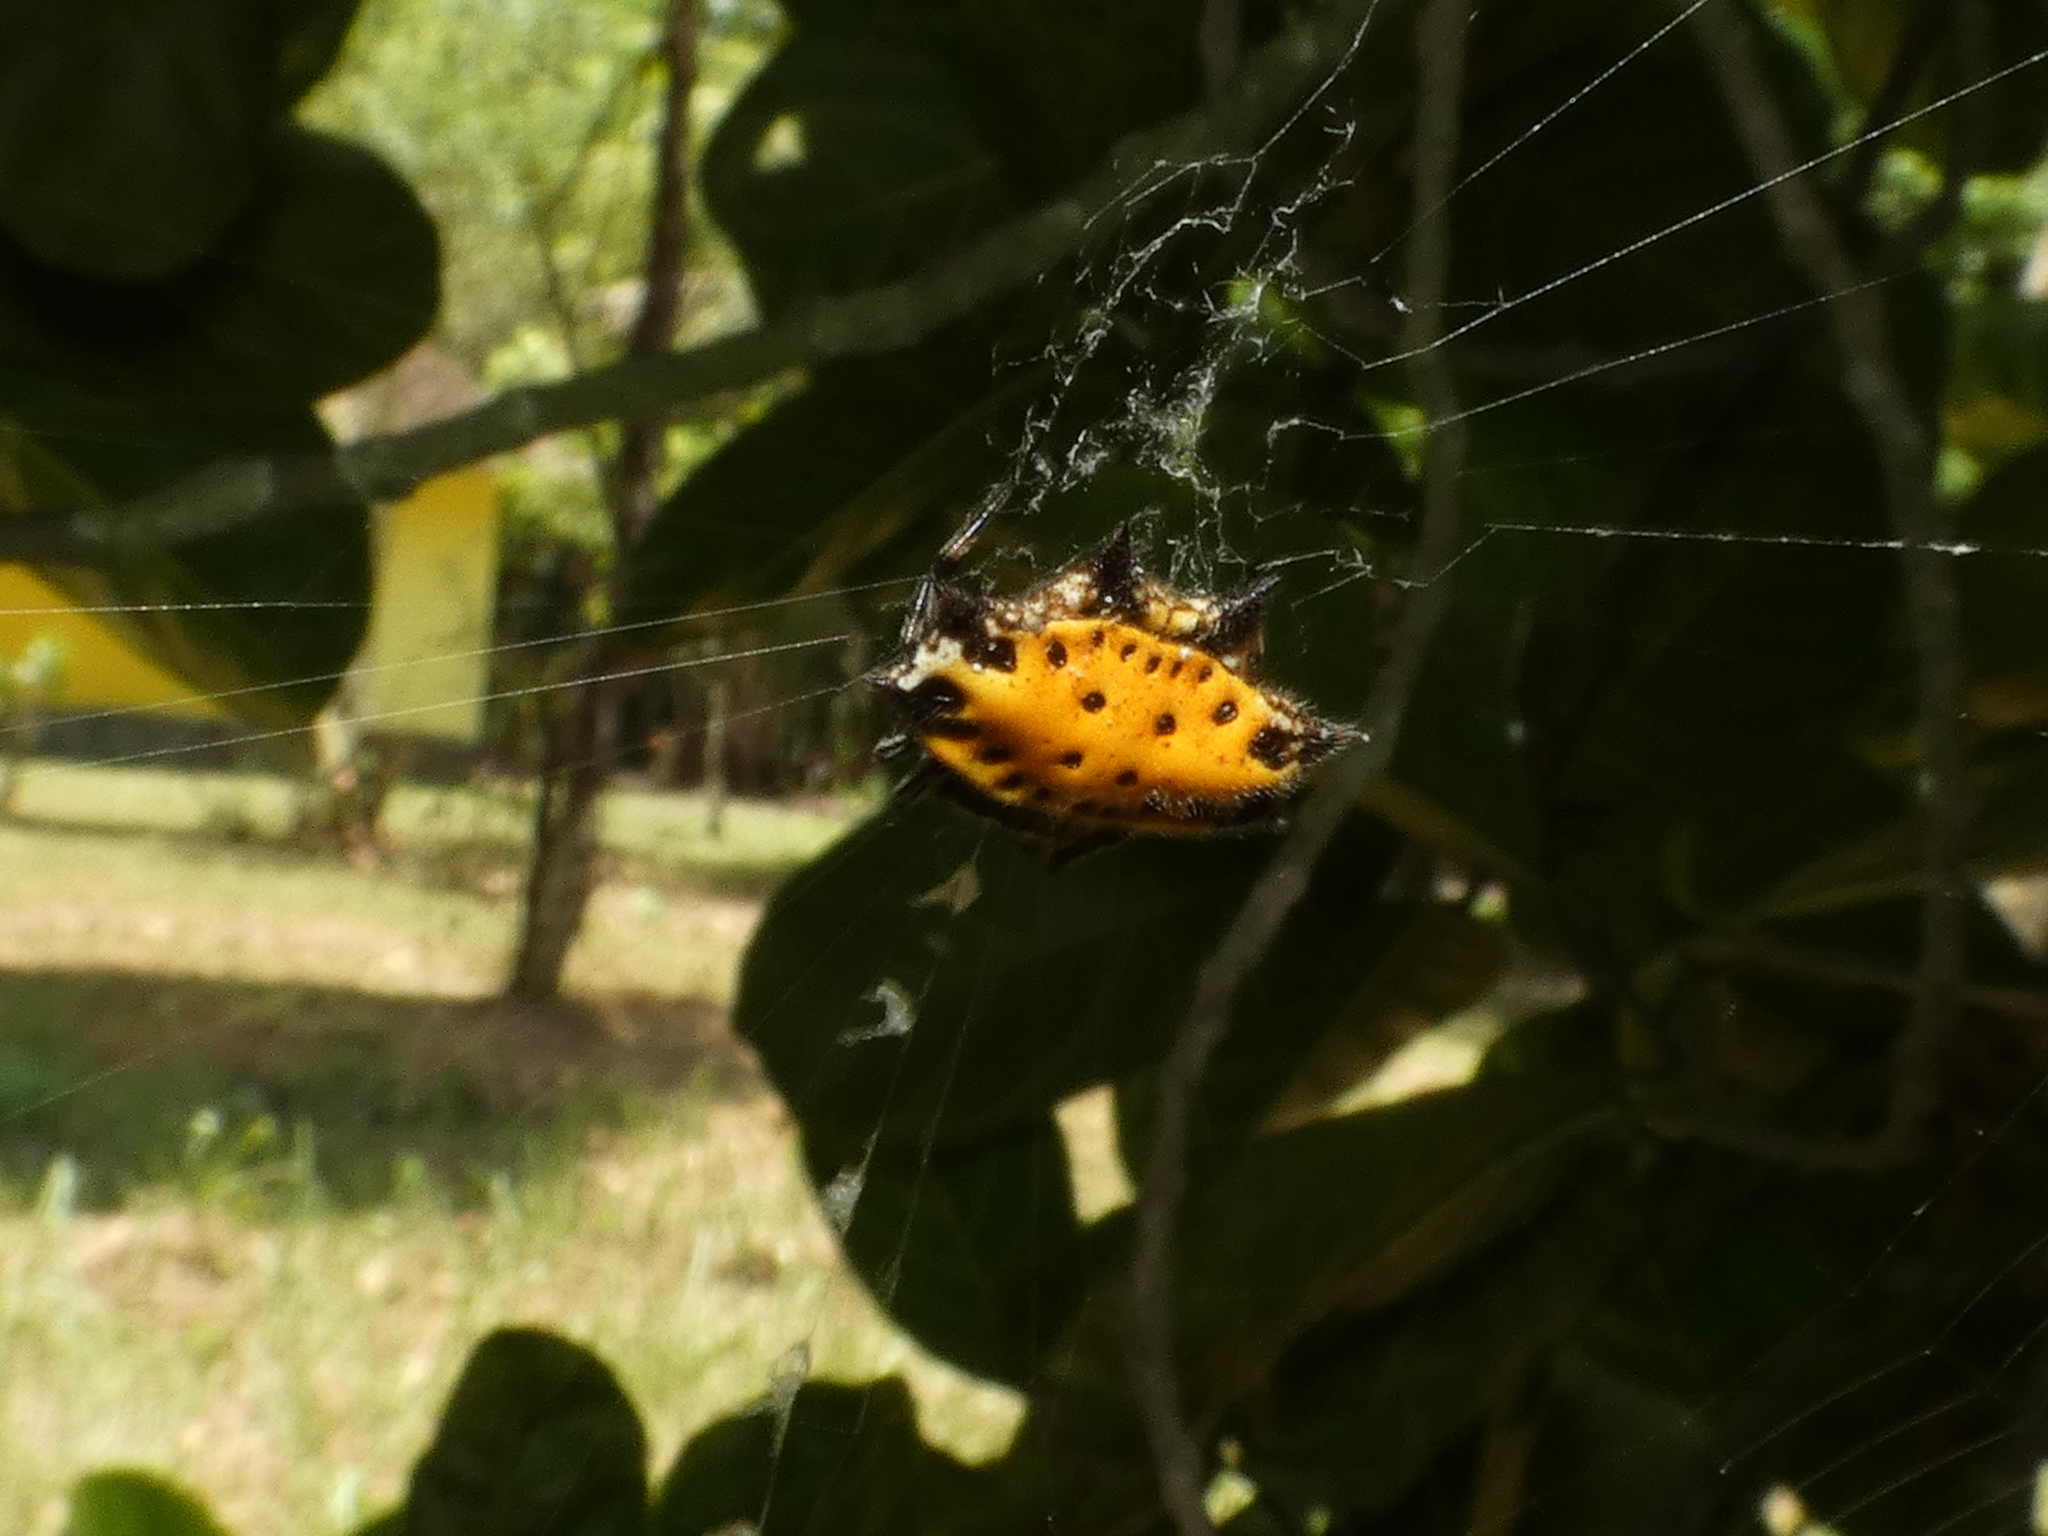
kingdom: Animalia
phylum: Arthropoda
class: Arachnida
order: Araneae
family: Araneidae
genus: Gasteracantha
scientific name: Gasteracantha cancriformis
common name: Orb weavers
